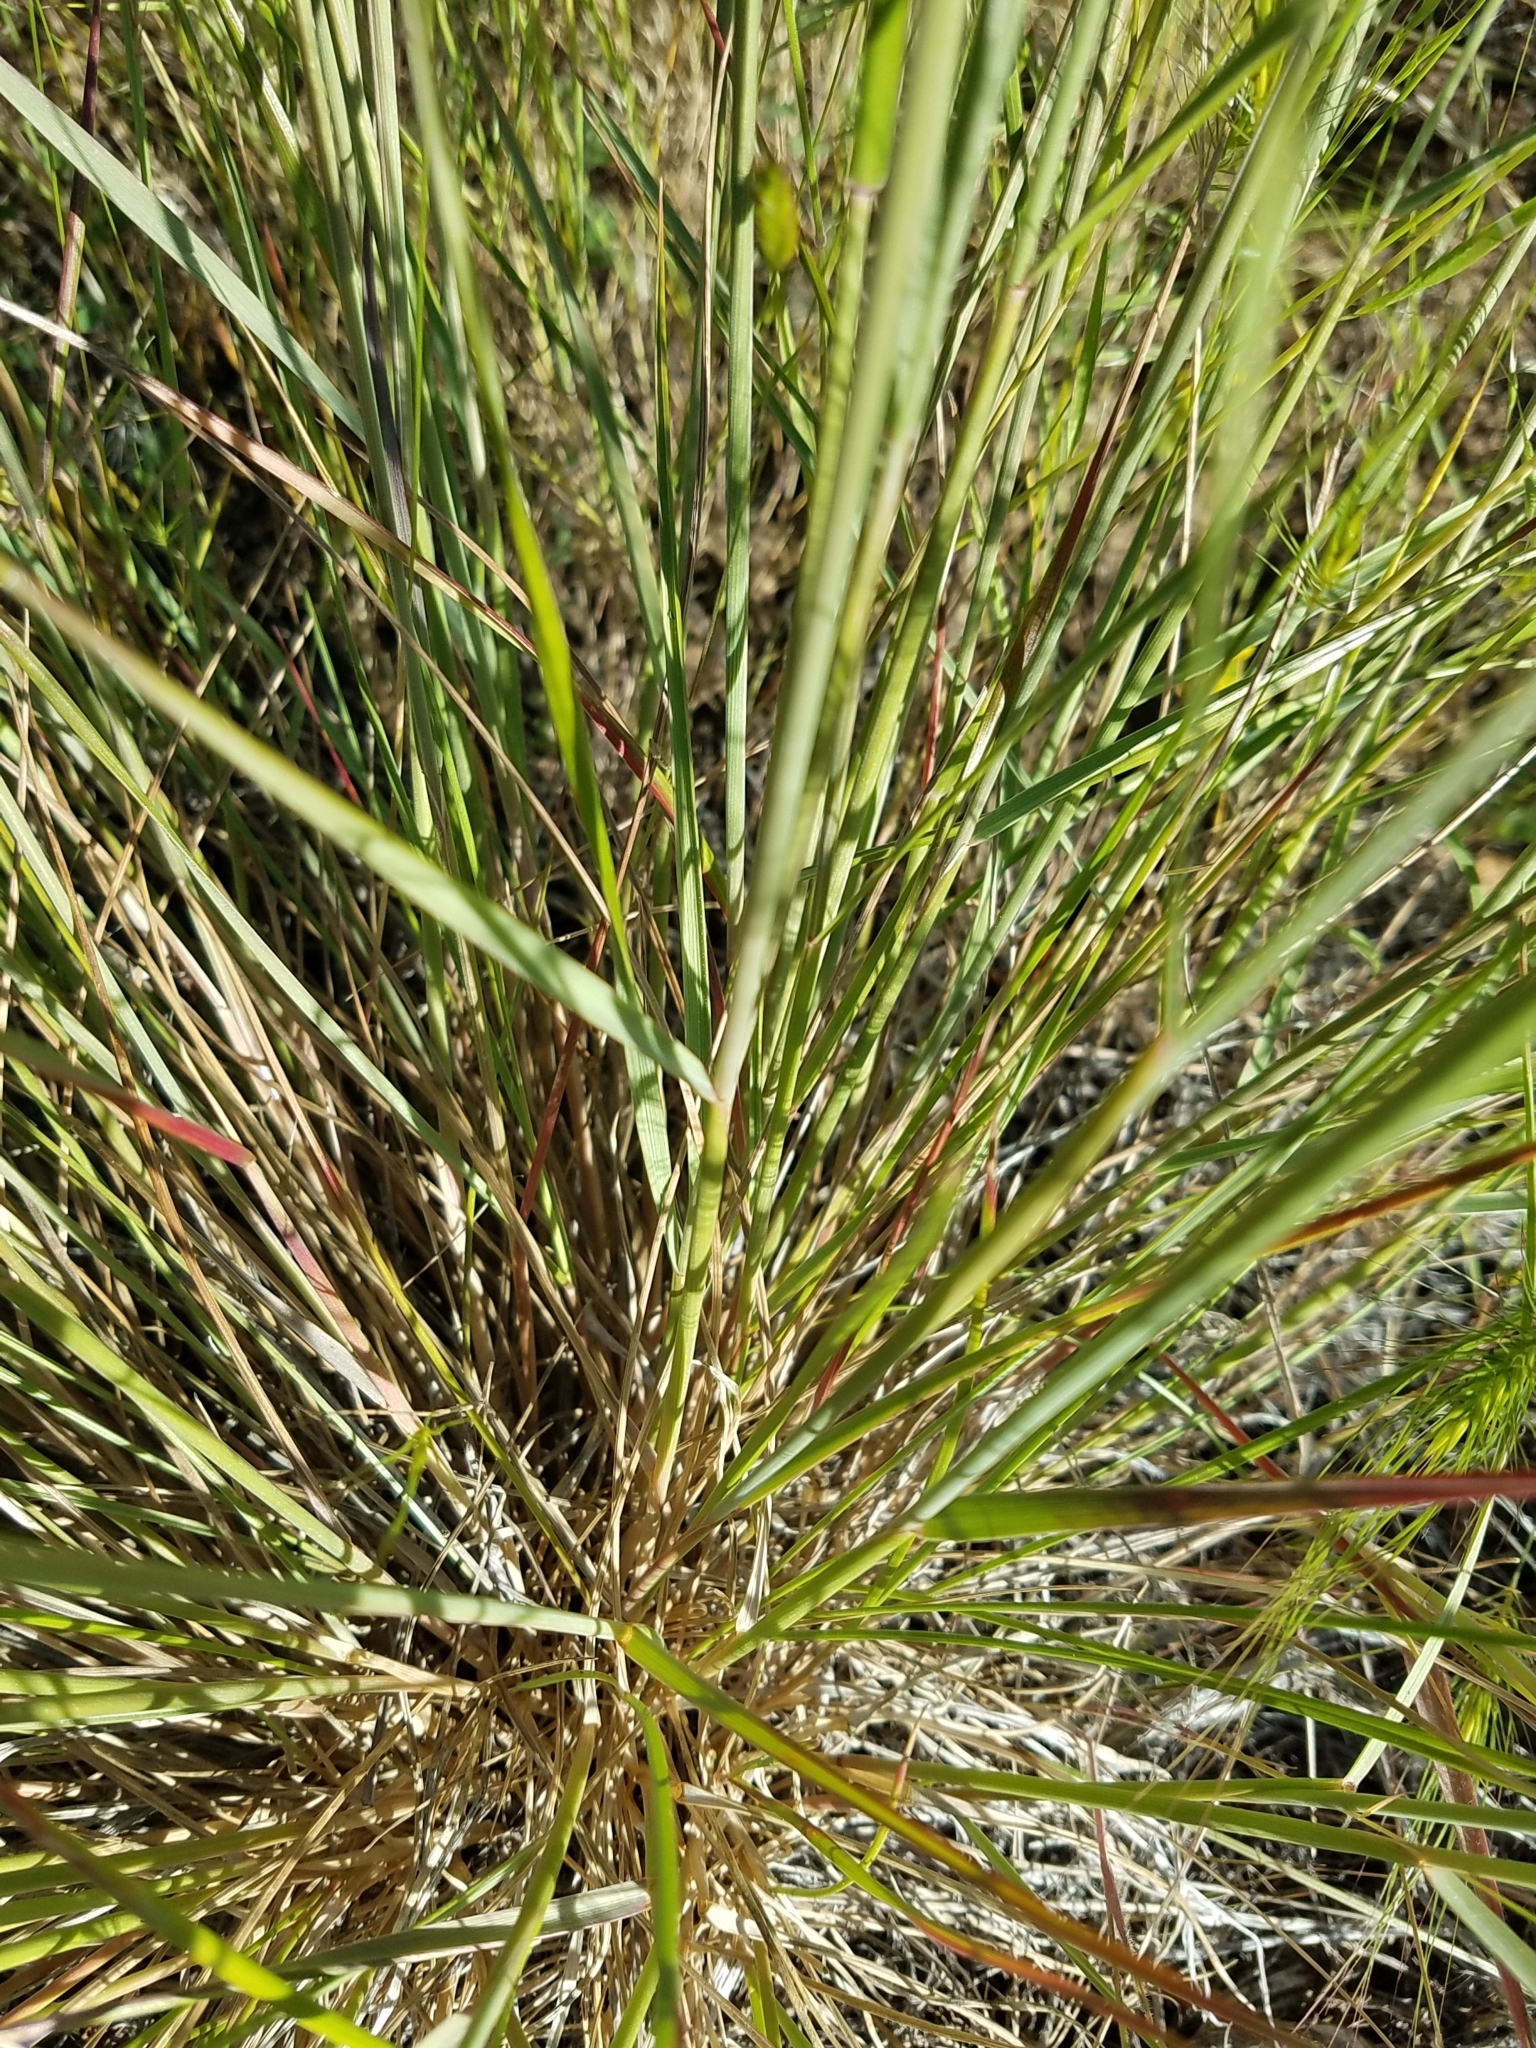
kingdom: Plantae
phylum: Tracheophyta
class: Liliopsida
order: Poales
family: Poaceae
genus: Elymus
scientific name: Elymus elymoides
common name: Bottlebrush squirreltail
